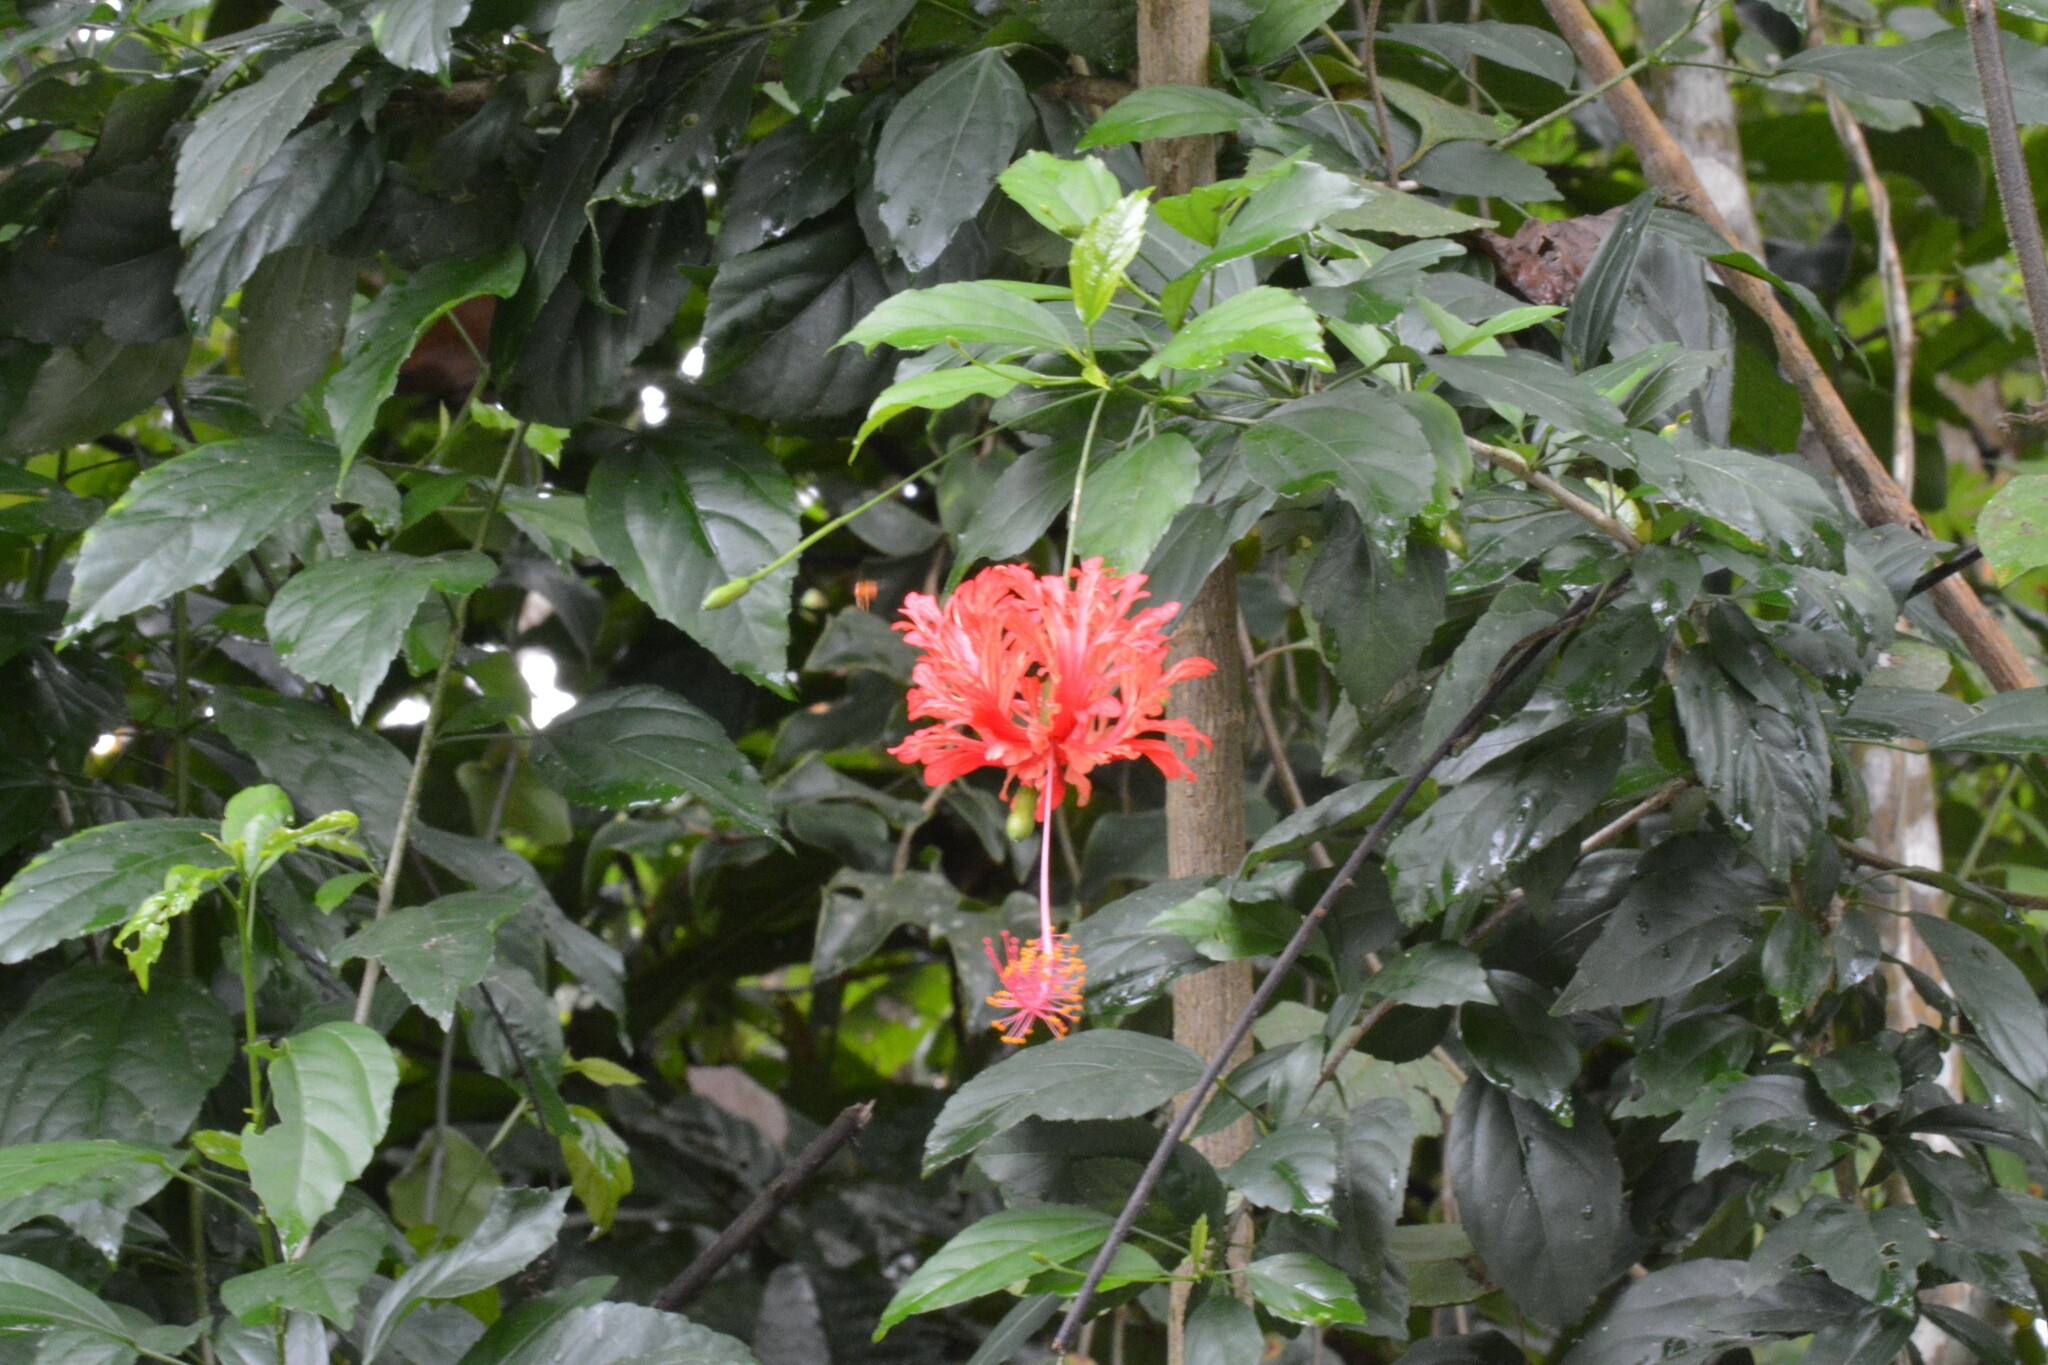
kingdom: Plantae
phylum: Tracheophyta
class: Magnoliopsida
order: Malvales
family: Malvaceae
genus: Hibiscus
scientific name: Hibiscus schizopetalus
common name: Fringed rosemallow
